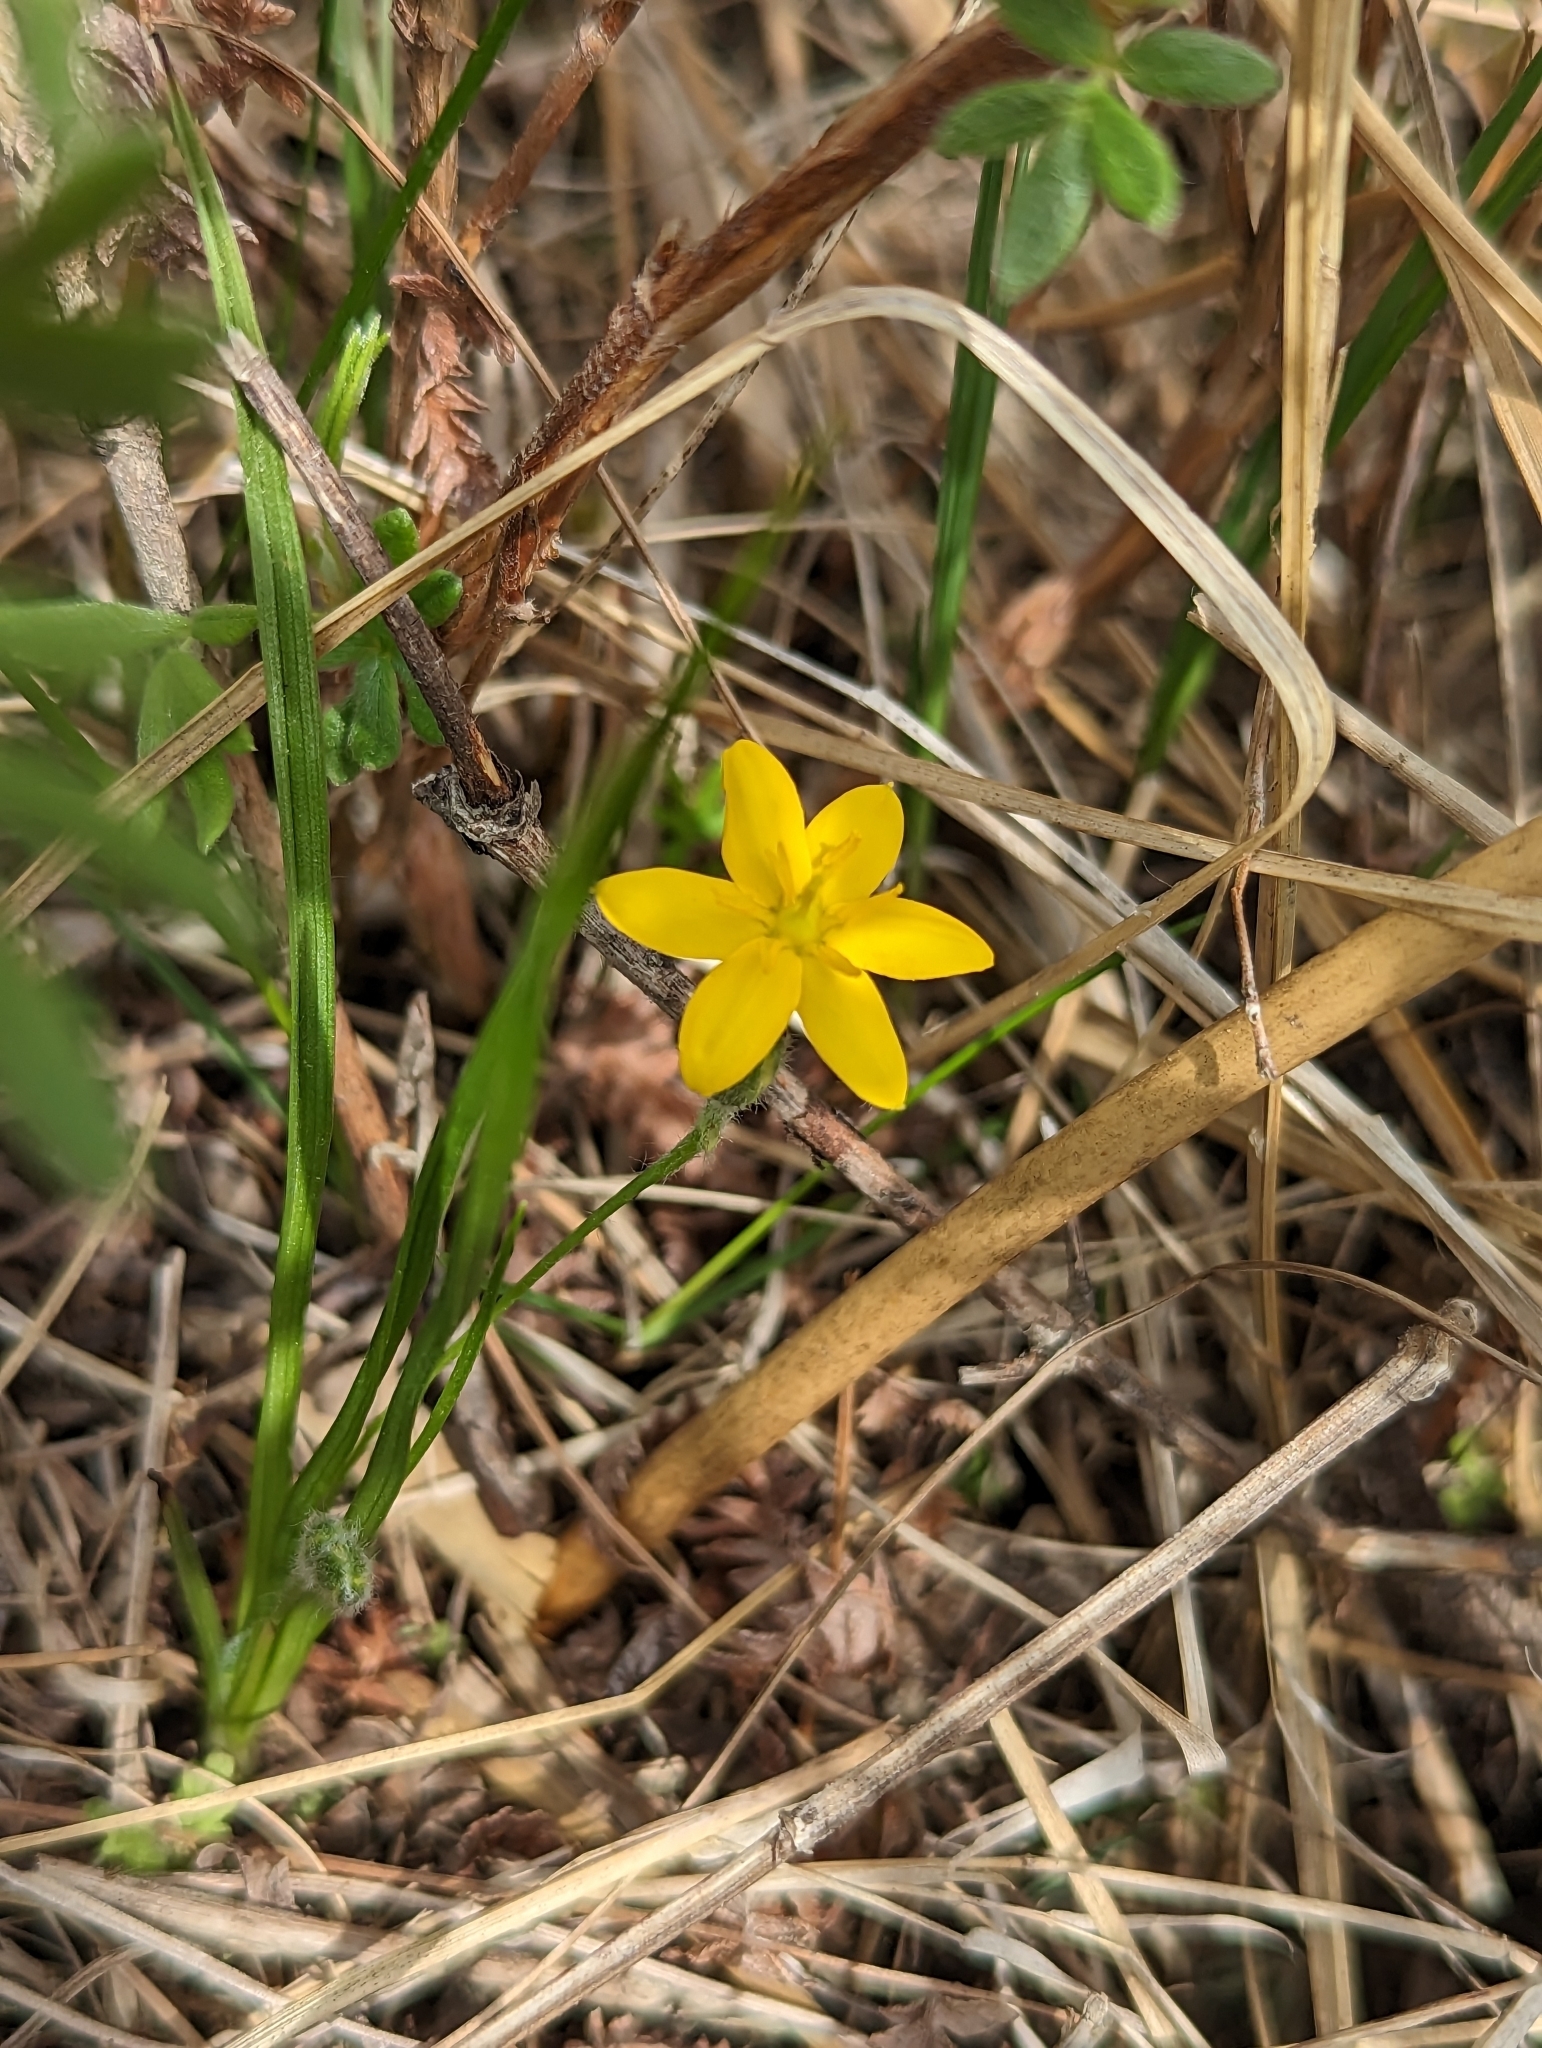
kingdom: Plantae
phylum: Tracheophyta
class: Liliopsida
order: Asparagales
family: Hypoxidaceae
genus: Hypoxis
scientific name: Hypoxis hirsuta
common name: Common goldstar
